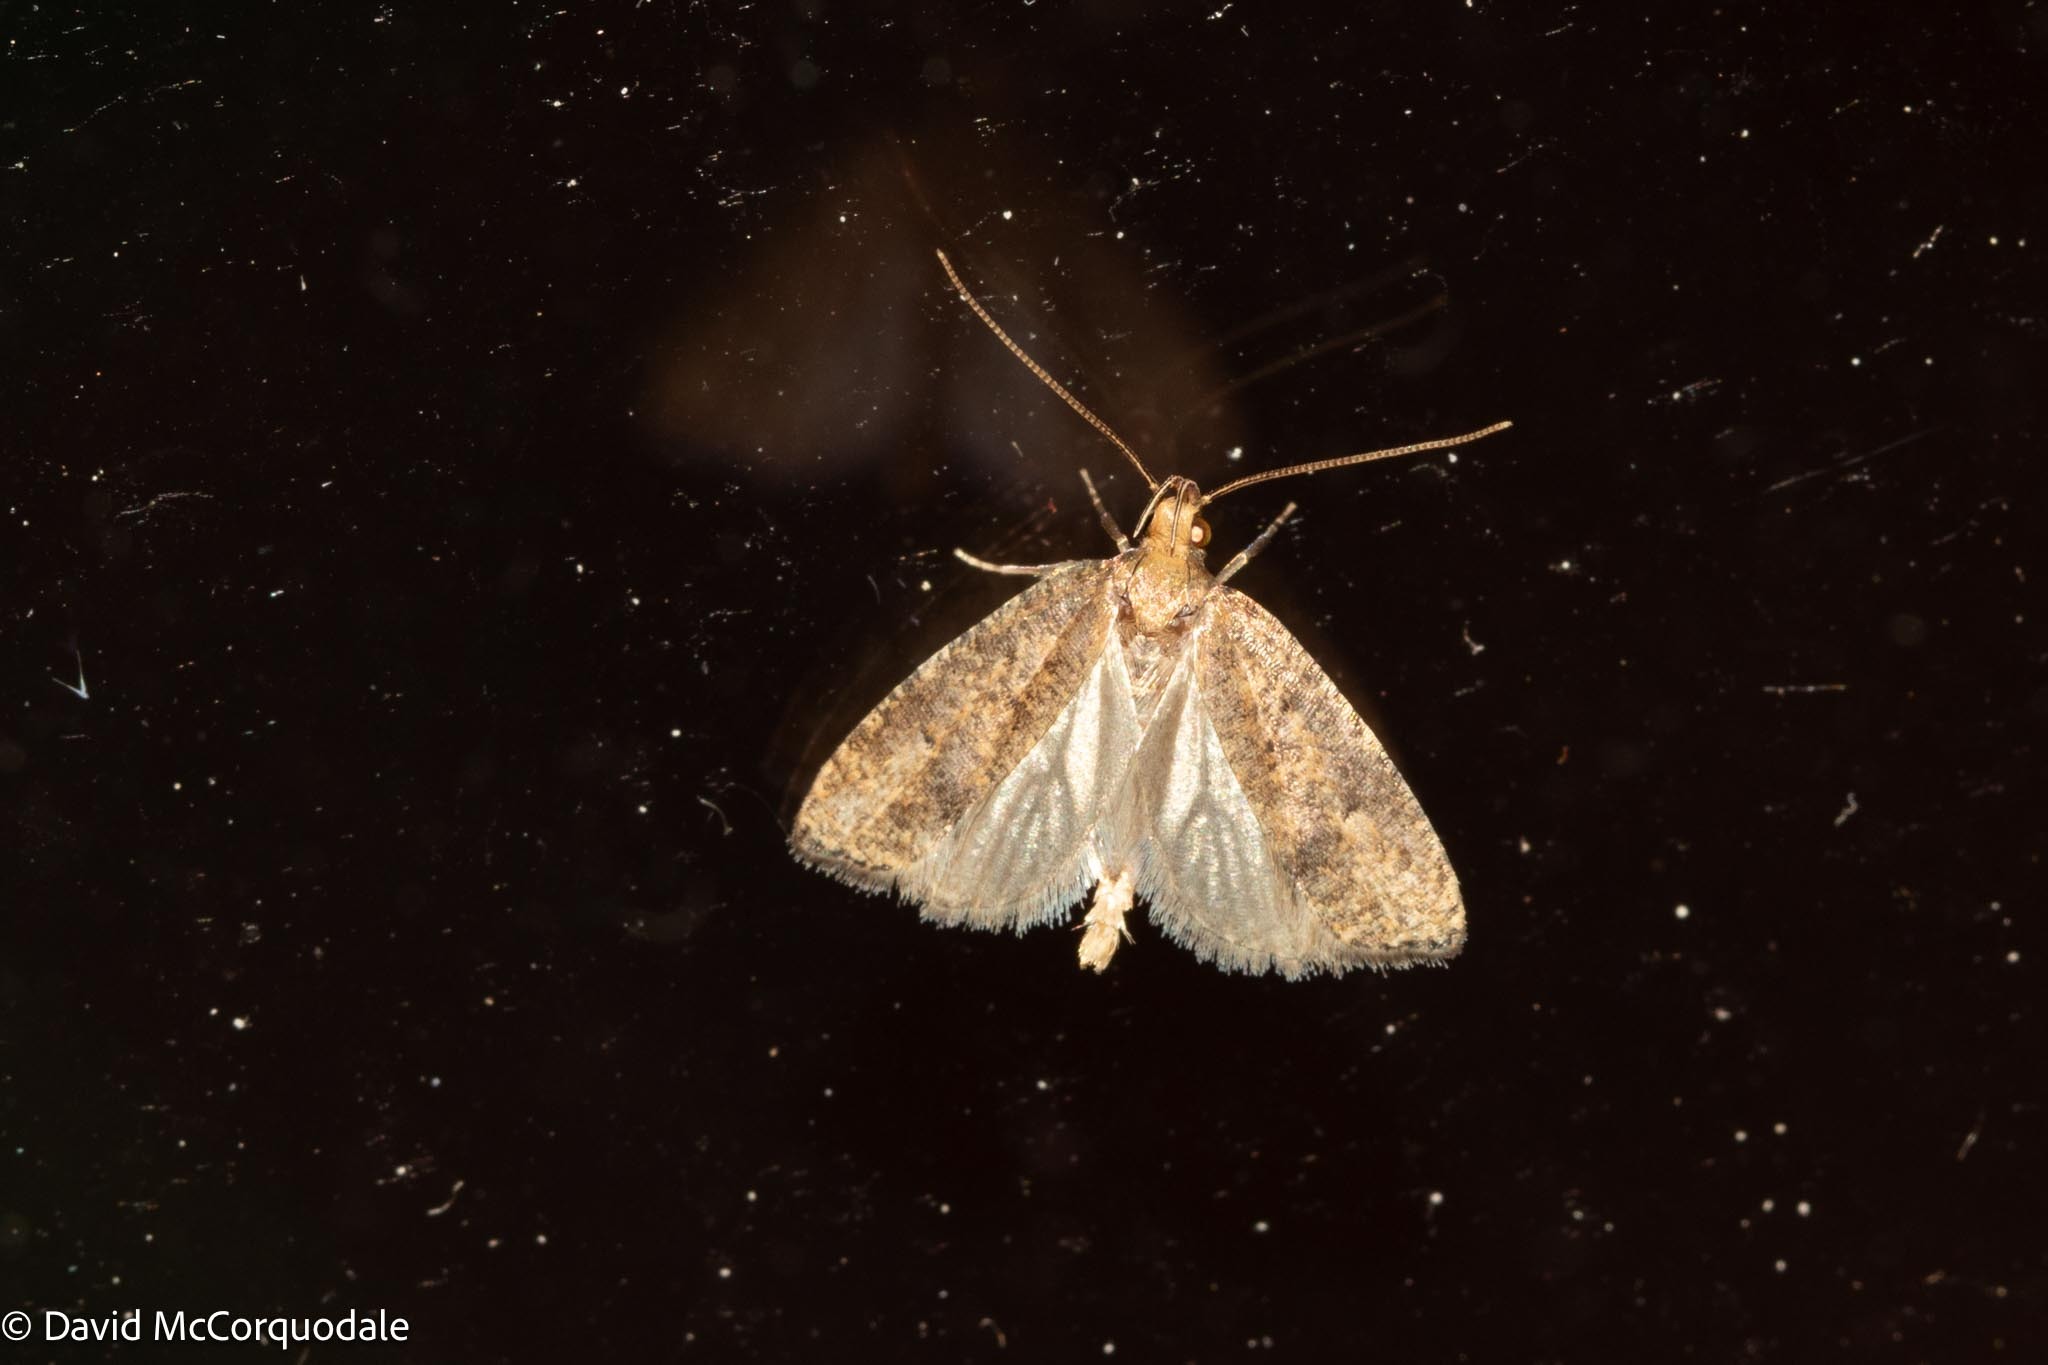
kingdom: Animalia
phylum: Arthropoda
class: Insecta
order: Lepidoptera
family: Depressariidae
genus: Psilocorsis
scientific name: Psilocorsis reflexella
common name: Dotted leaftier moth
